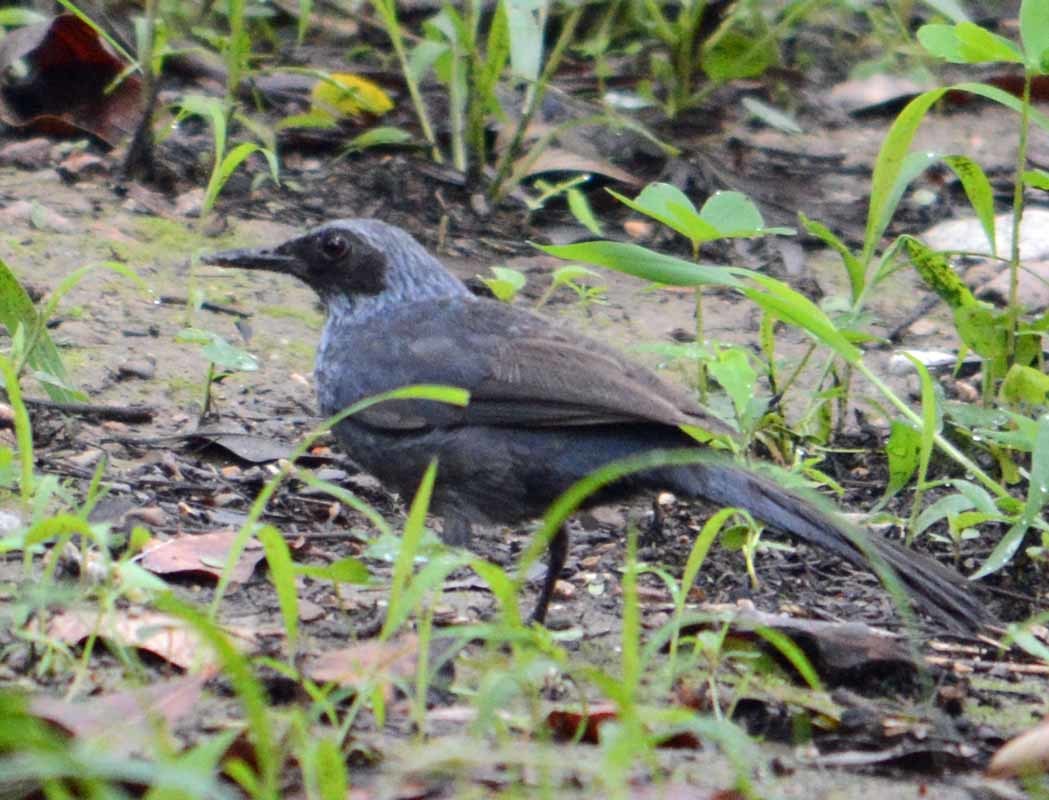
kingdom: Animalia
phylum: Chordata
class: Aves
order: Passeriformes
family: Mimidae
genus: Melanotis
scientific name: Melanotis caerulescens
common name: Blue mockingbird
